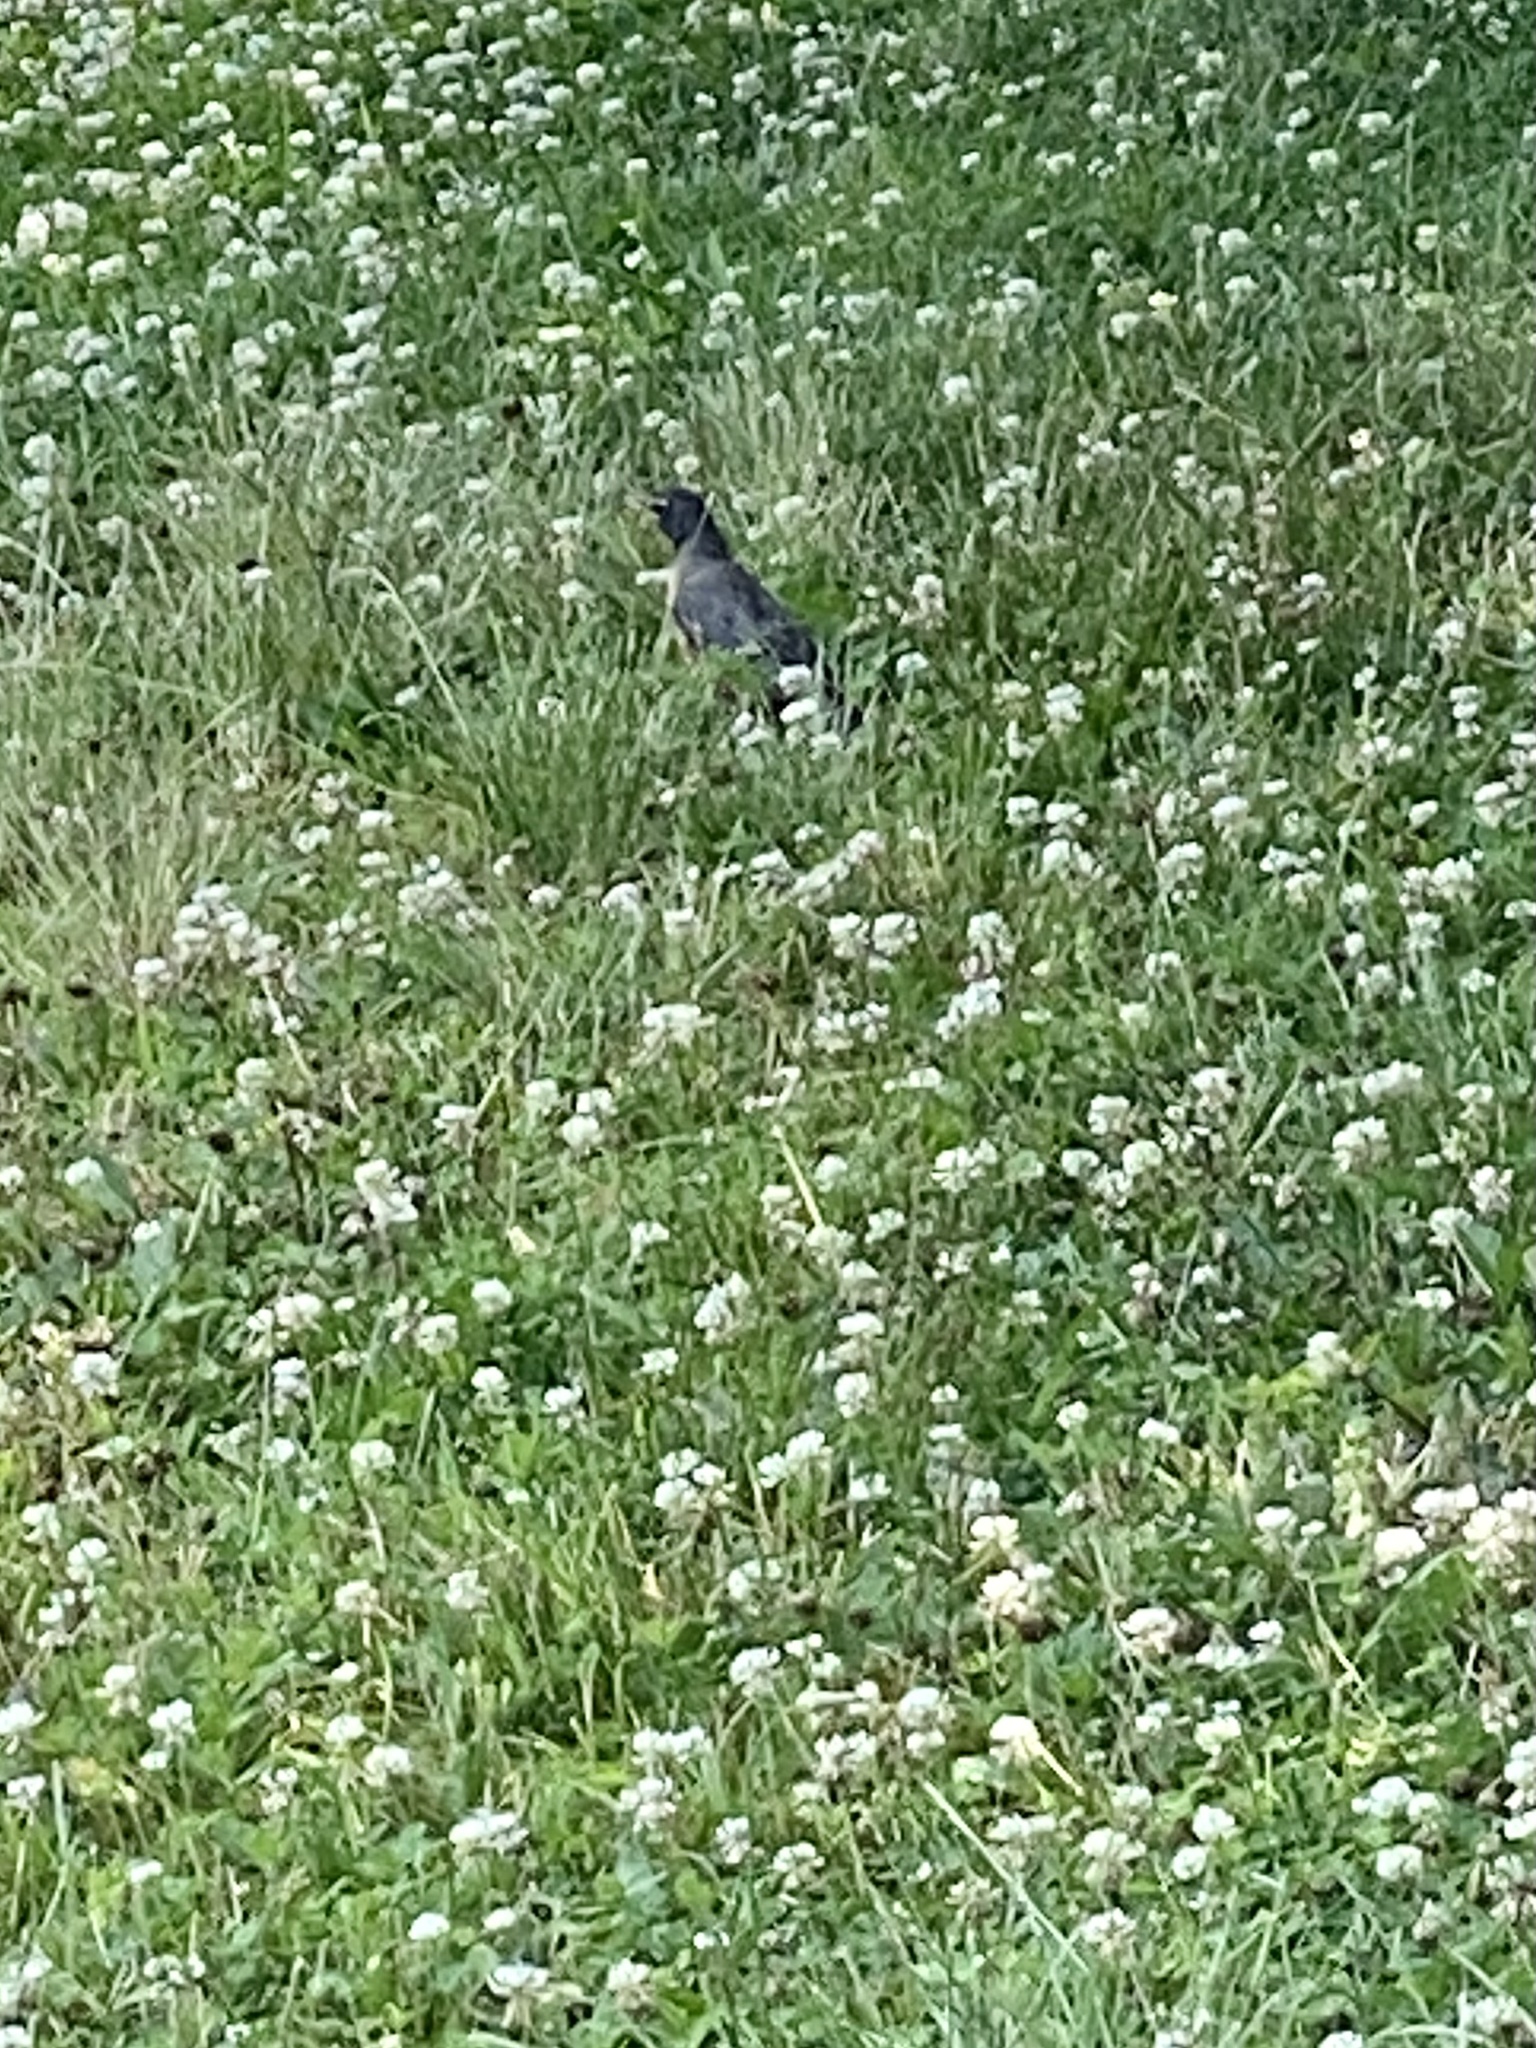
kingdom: Animalia
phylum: Chordata
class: Aves
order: Passeriformes
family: Turdidae
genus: Turdus
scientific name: Turdus migratorius
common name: American robin
